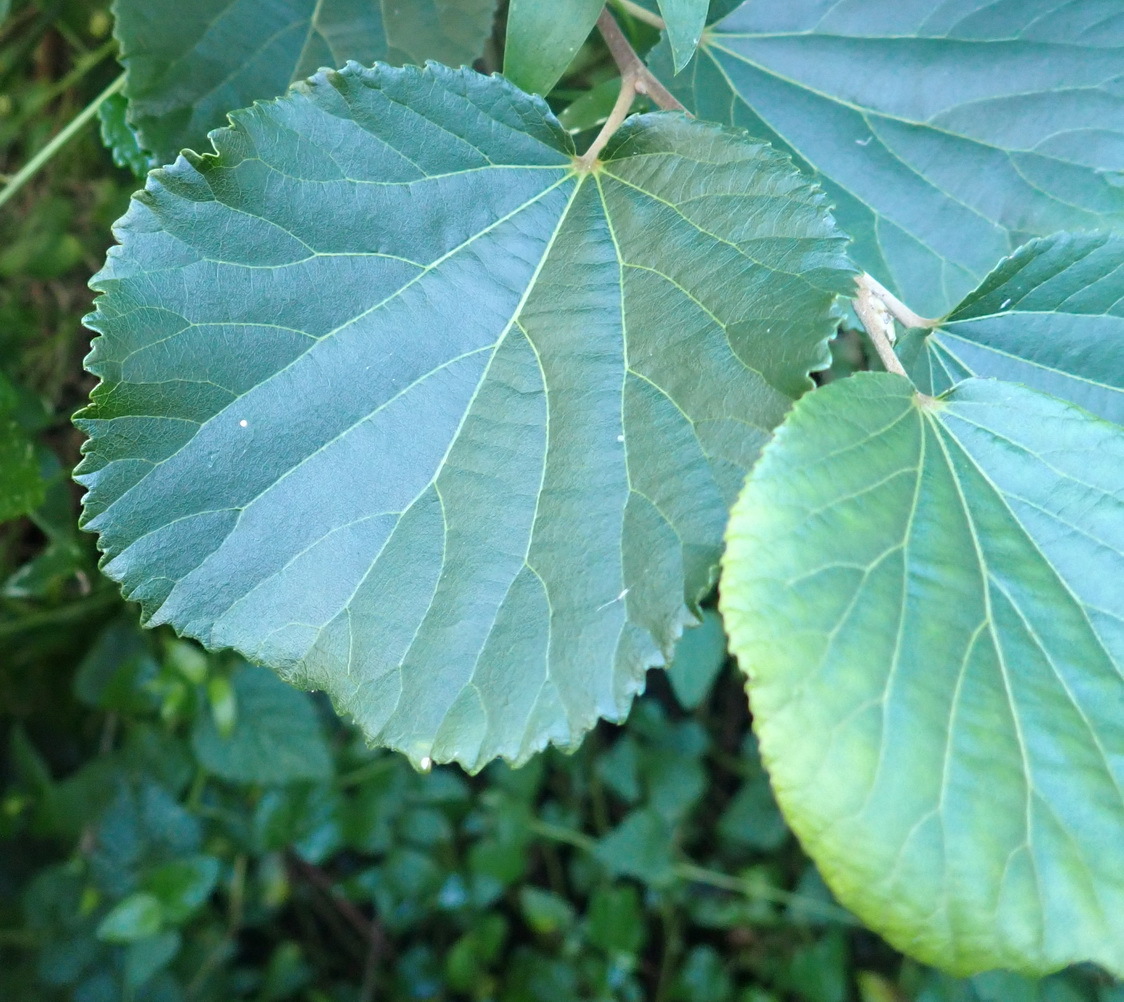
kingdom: Plantae
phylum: Tracheophyta
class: Magnoliopsida
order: Malpighiales
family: Salicaceae
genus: Trimeria
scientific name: Trimeria grandifolia
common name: Wild mulberry
